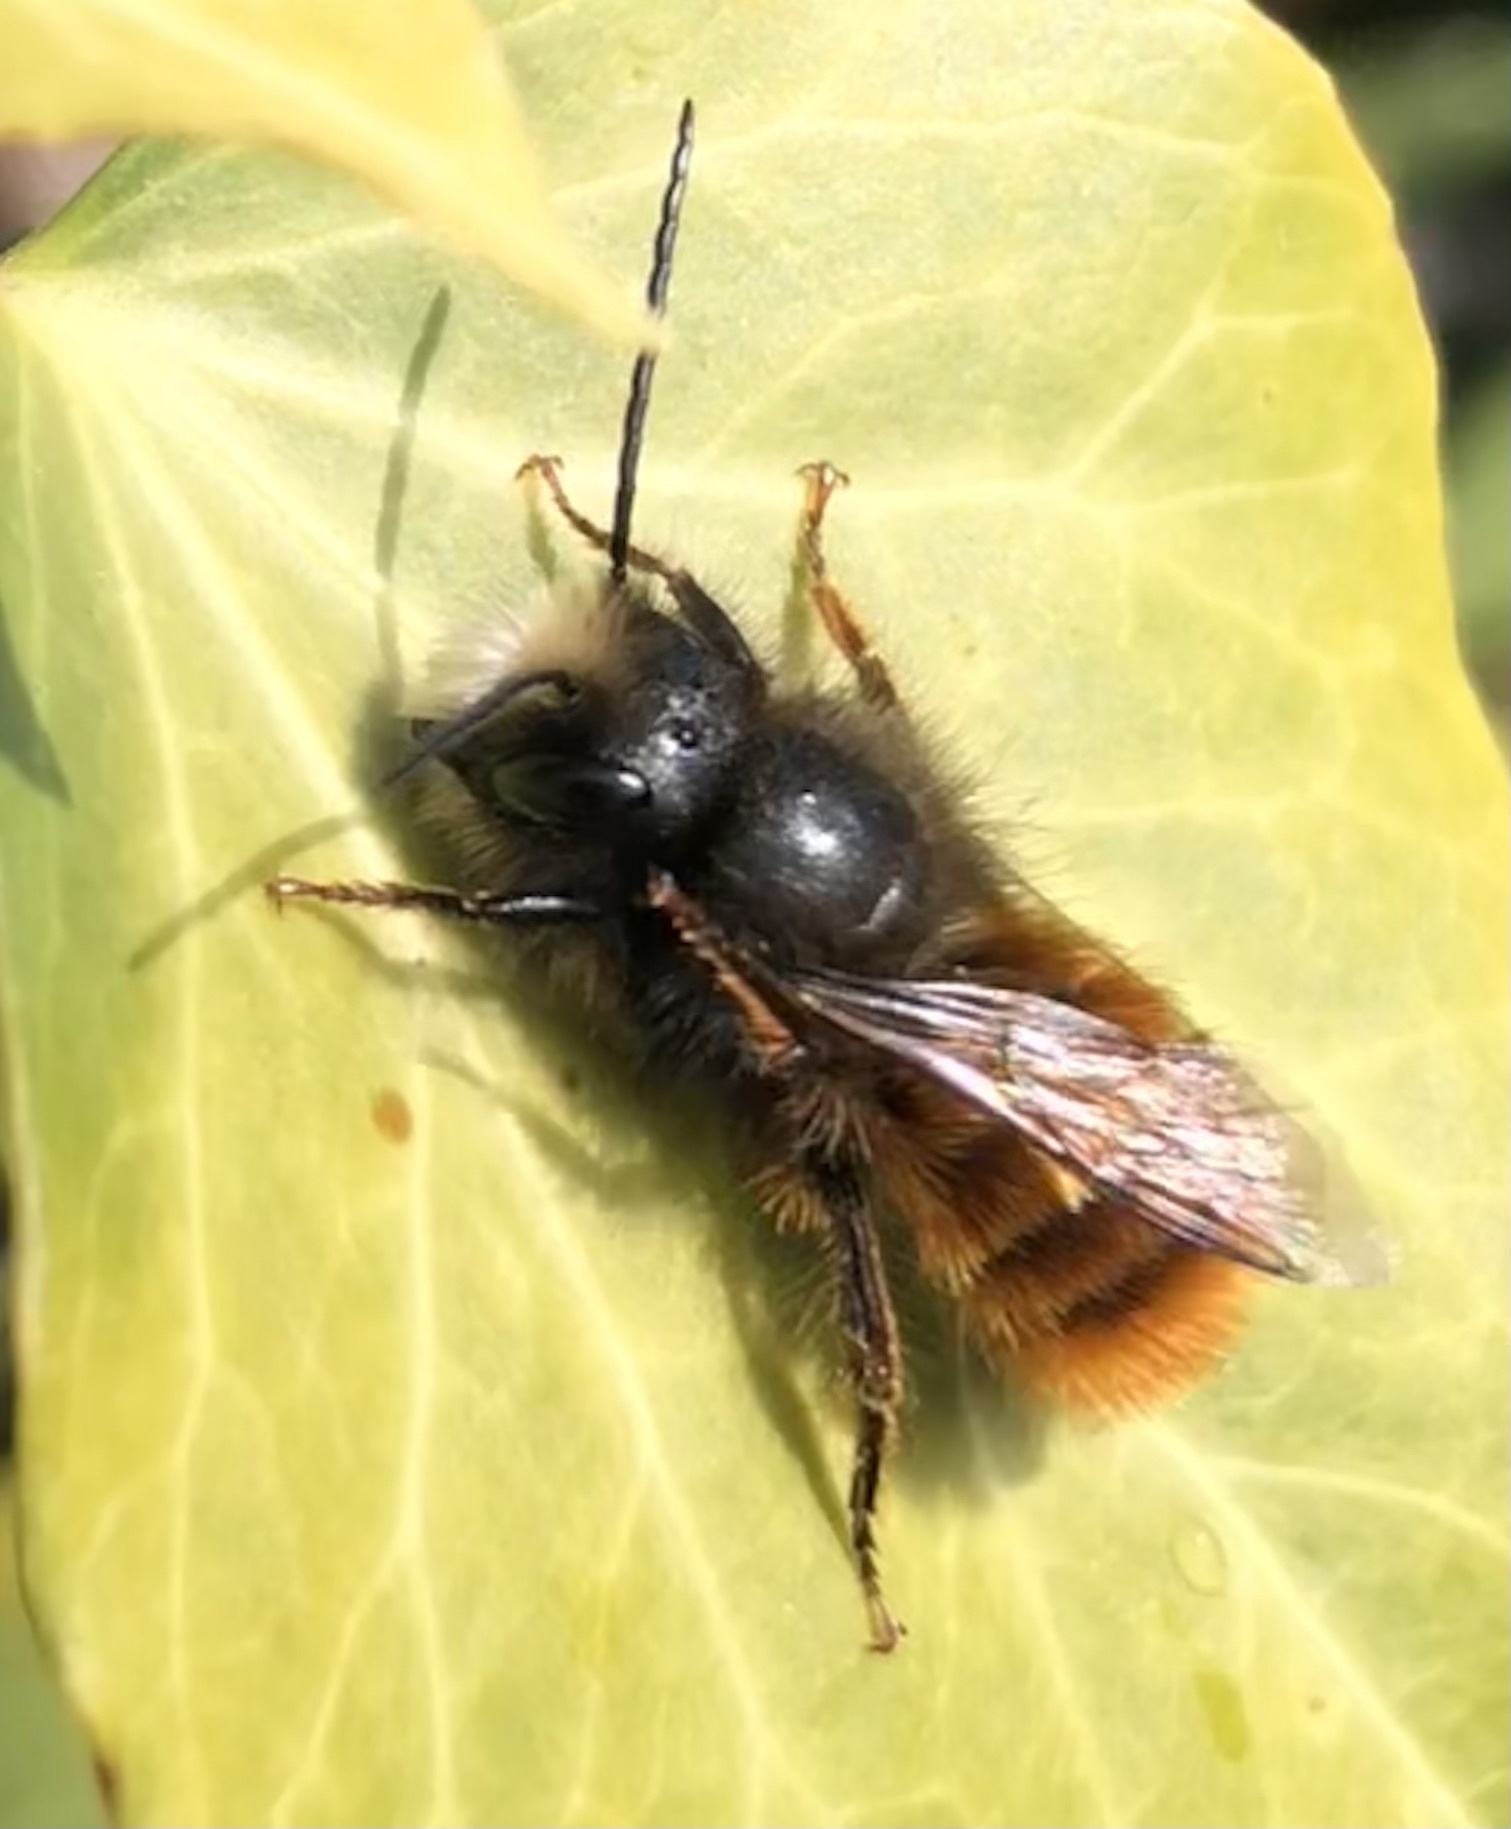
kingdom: Animalia
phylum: Arthropoda
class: Insecta
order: Hymenoptera
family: Megachilidae
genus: Osmia
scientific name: Osmia cornuta
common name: Mason bee
